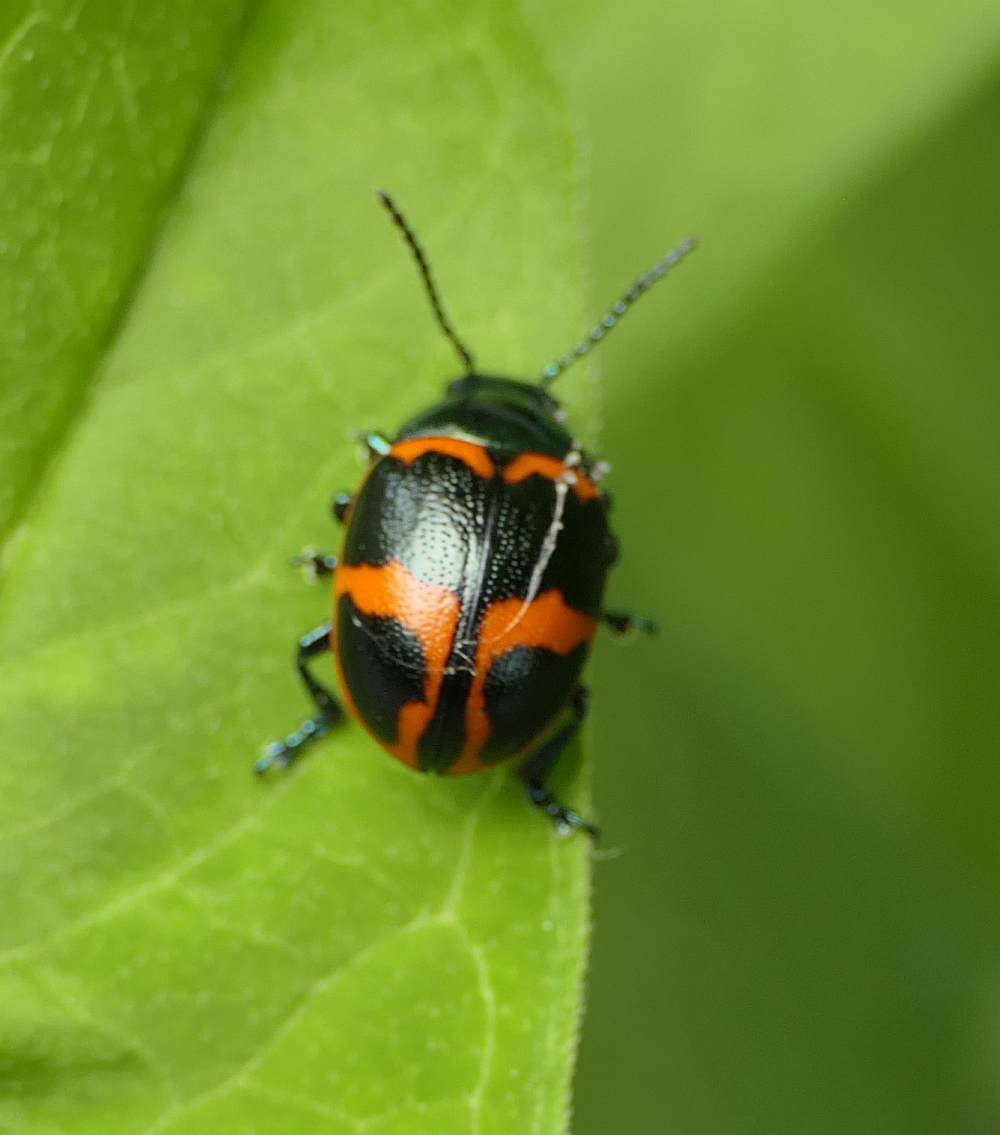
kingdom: Animalia
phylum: Arthropoda
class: Insecta
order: Coleoptera
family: Chrysomelidae
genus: Labidomera
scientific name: Labidomera clivicollis
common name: Swamp milkweed leaf beetle
